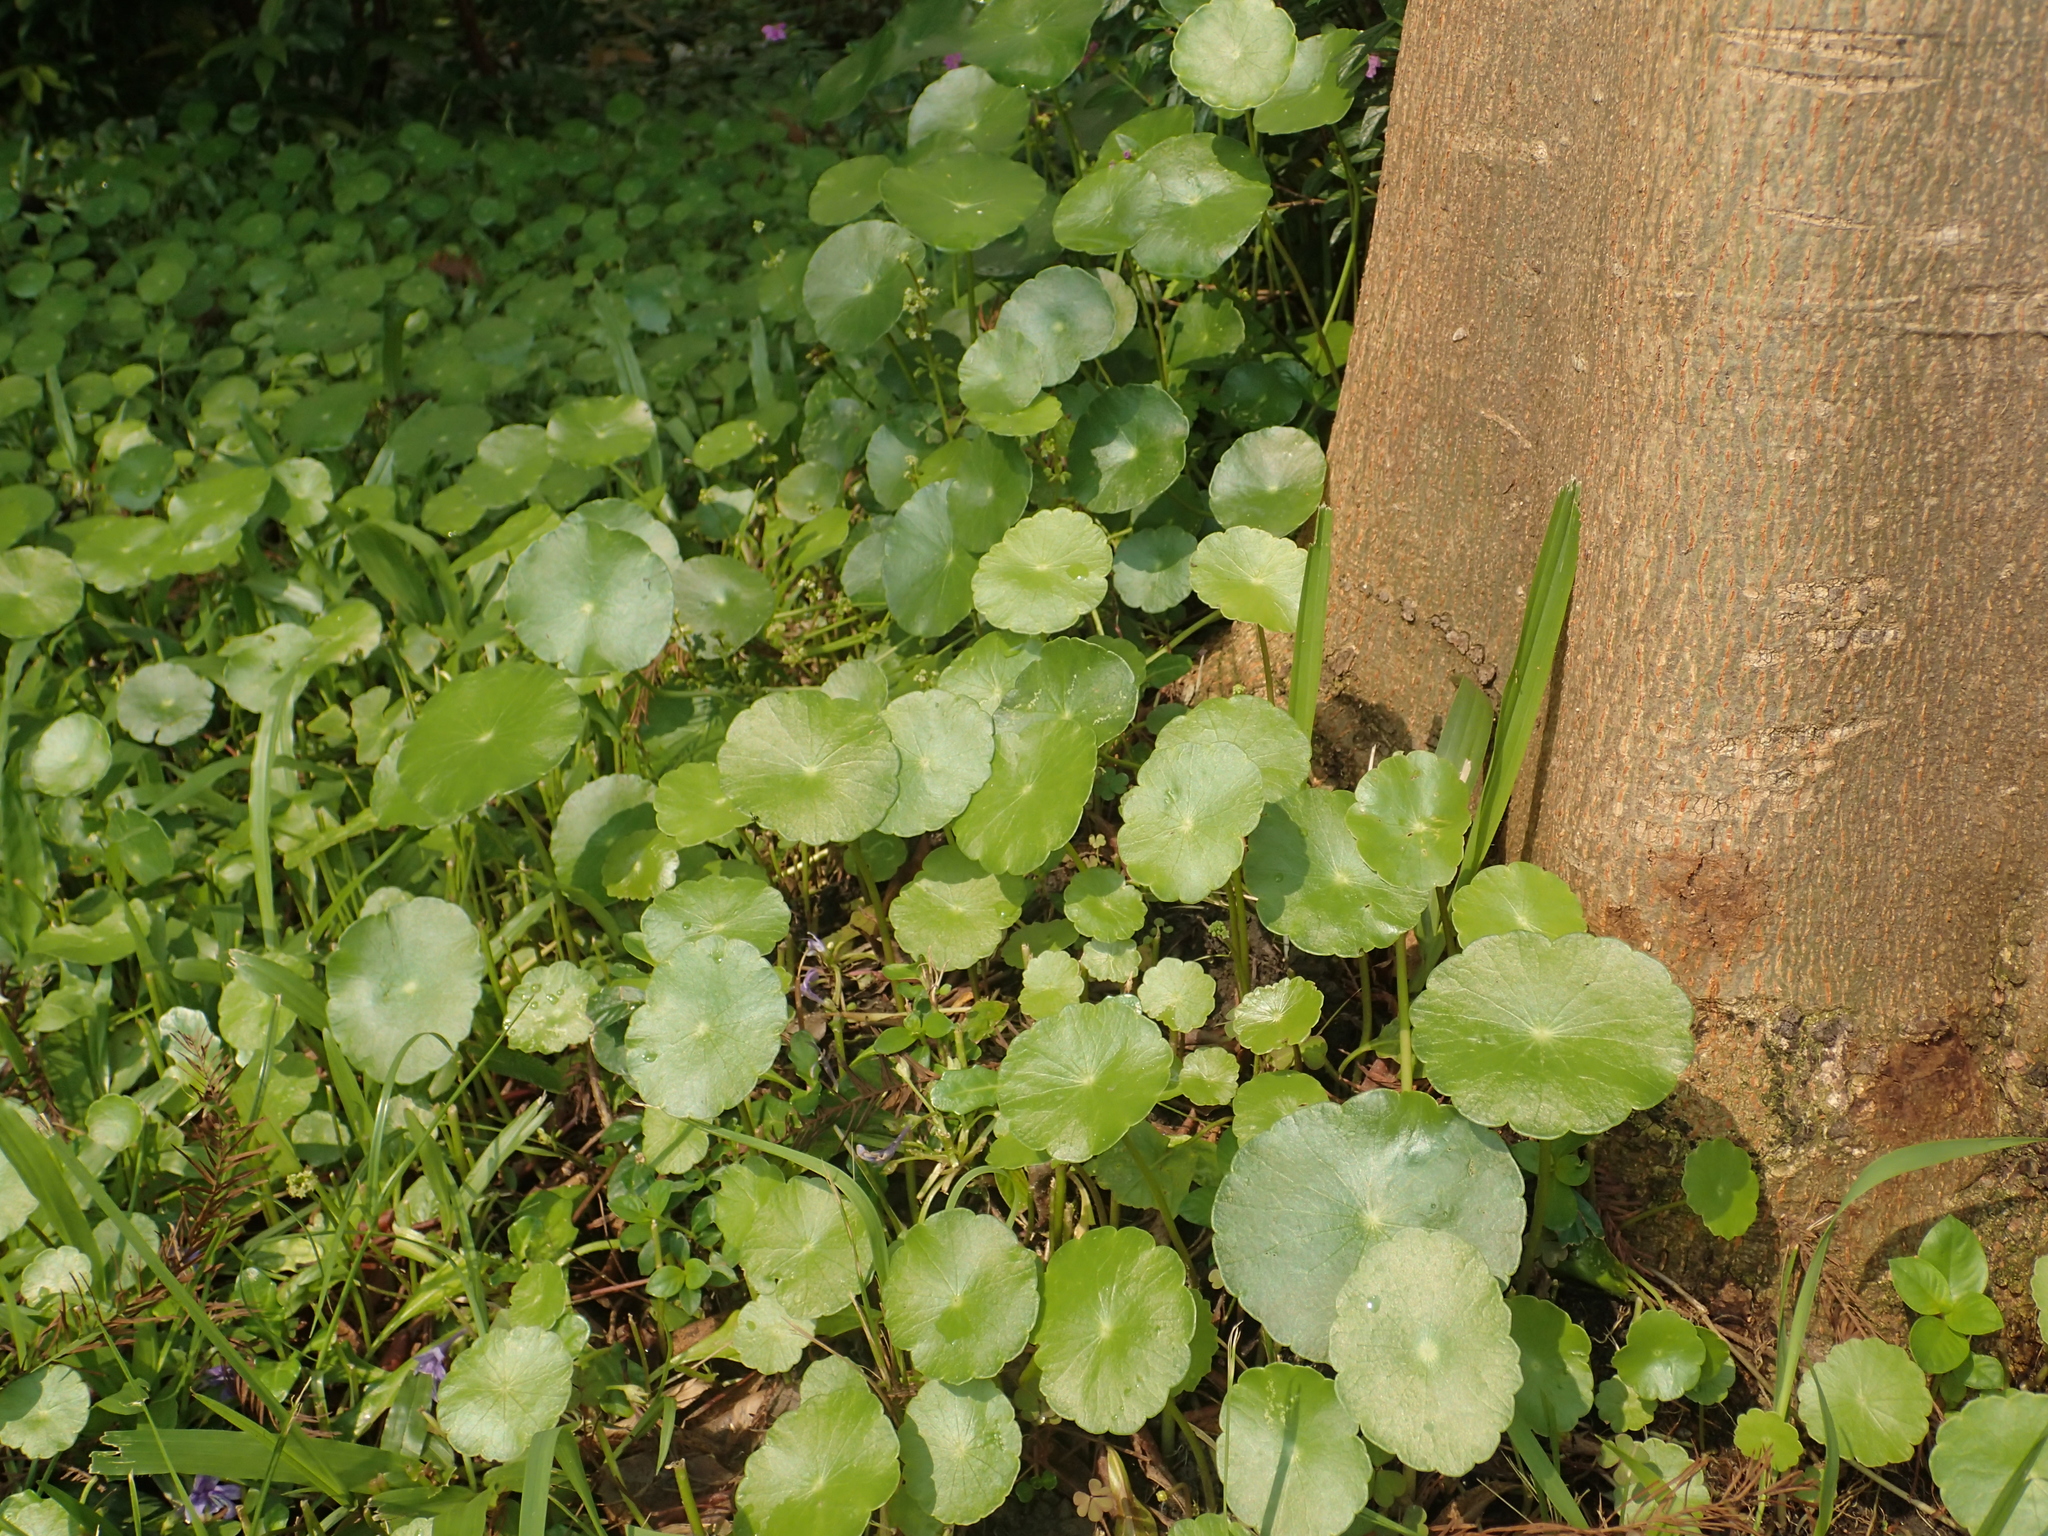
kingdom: Plantae
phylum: Tracheophyta
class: Magnoliopsida
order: Apiales
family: Araliaceae
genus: Hydrocotyle
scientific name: Hydrocotyle verticillata
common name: Whorled marshpennywort
